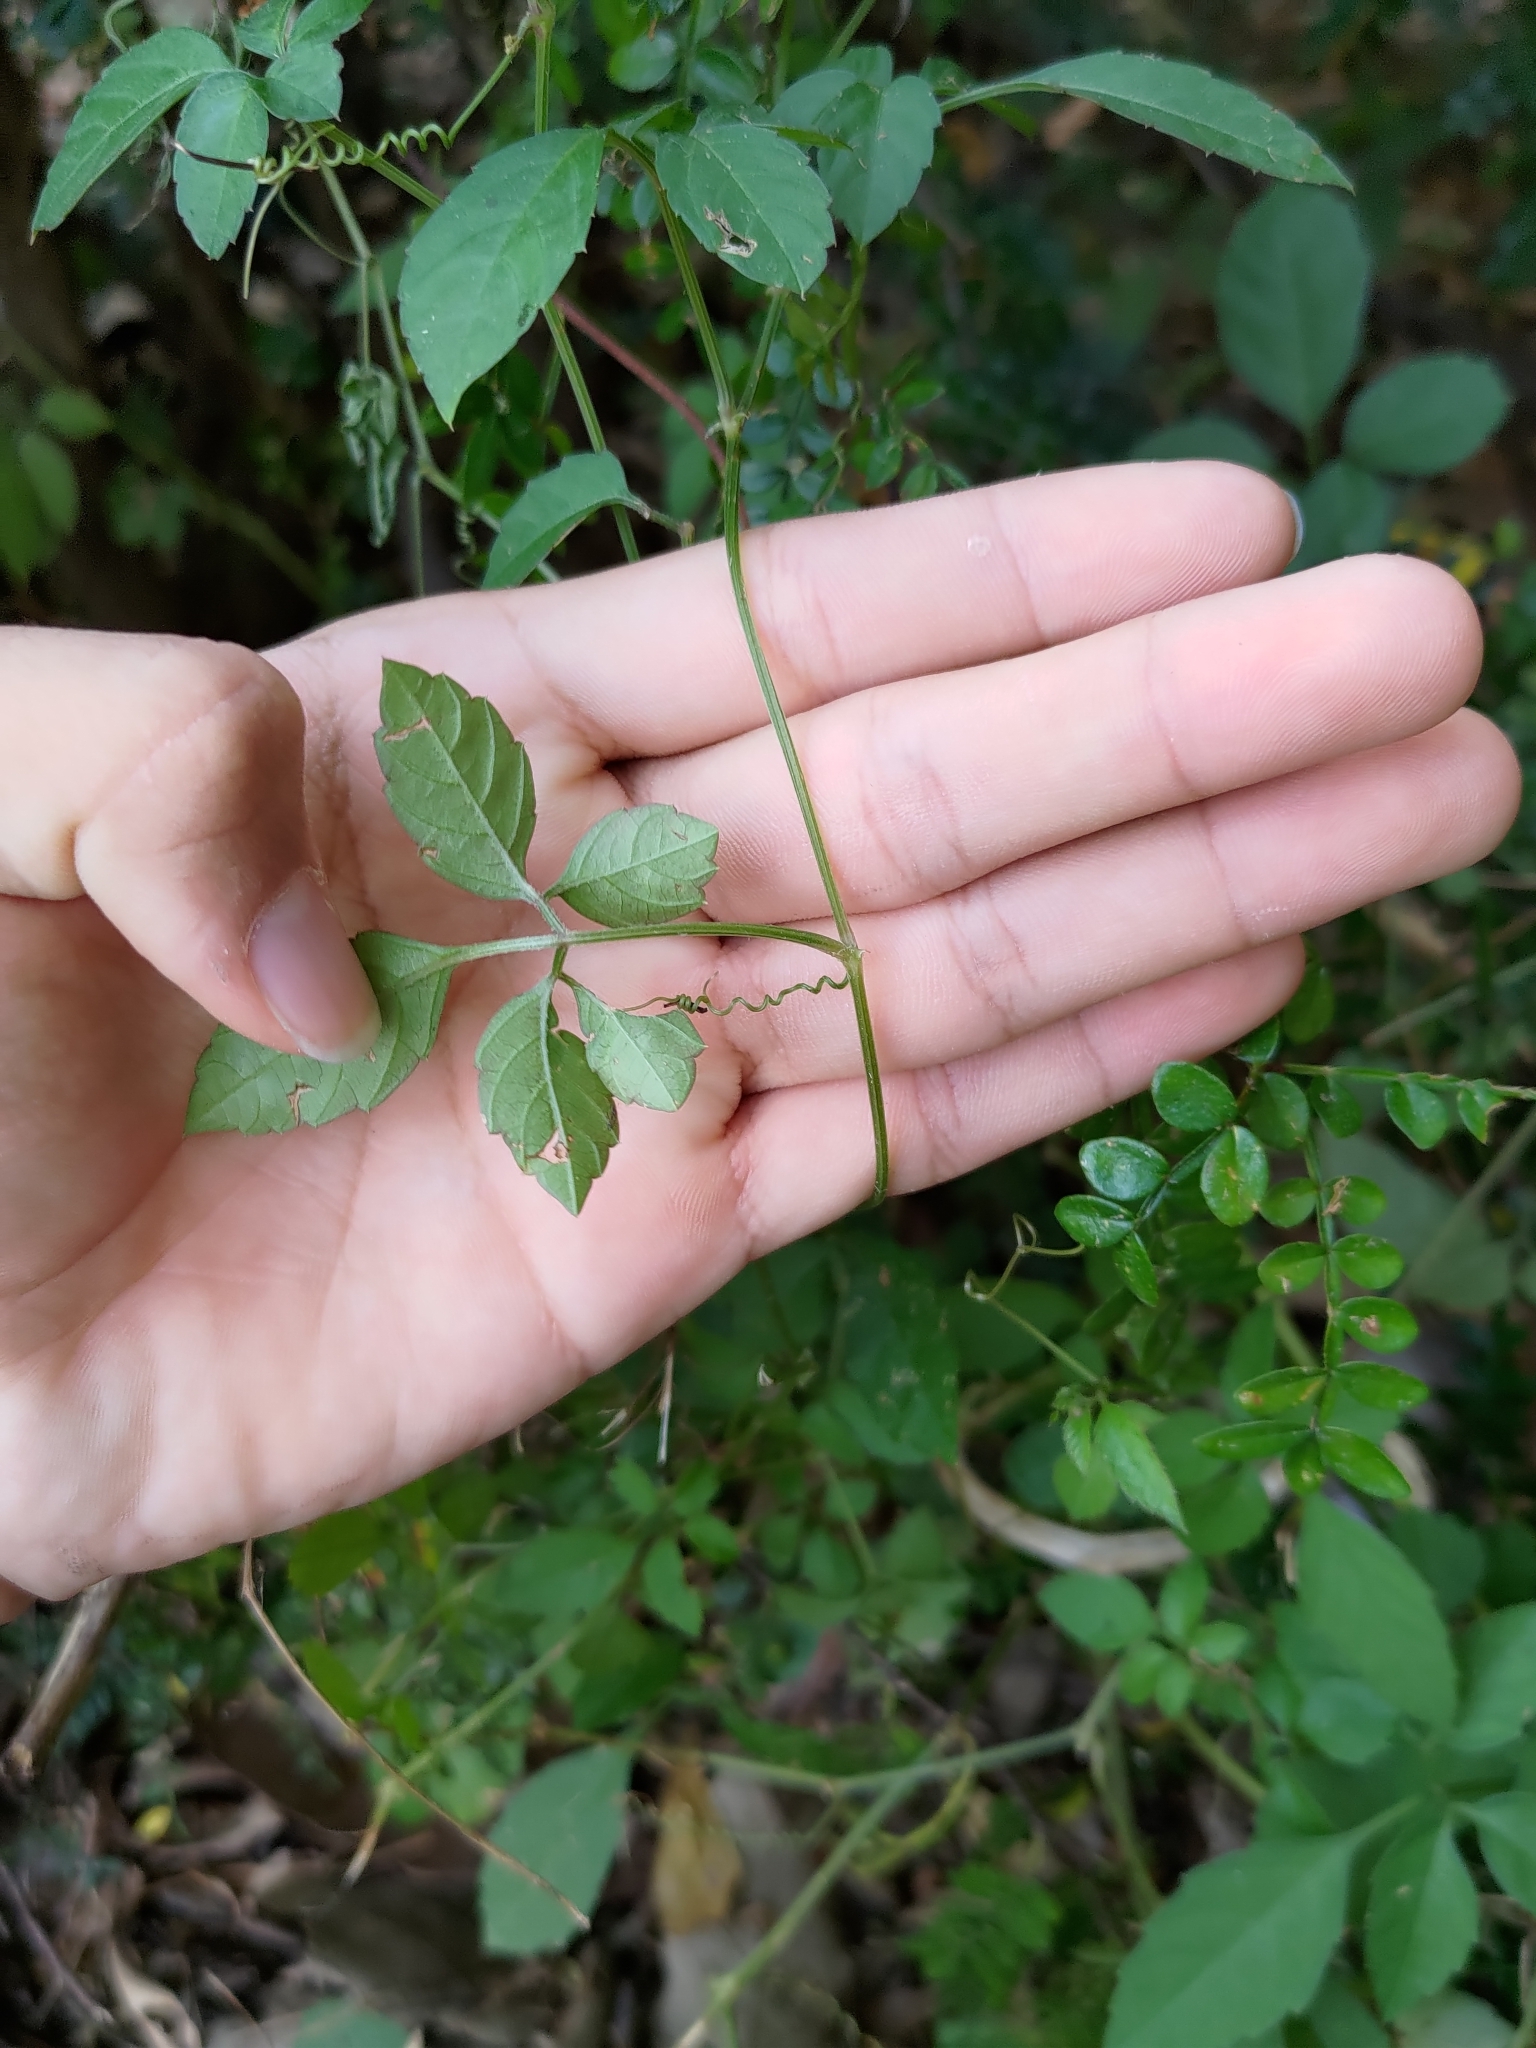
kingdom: Plantae
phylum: Tracheophyta
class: Magnoliopsida
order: Vitales
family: Vitaceae
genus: Causonis
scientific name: Causonis japonica
